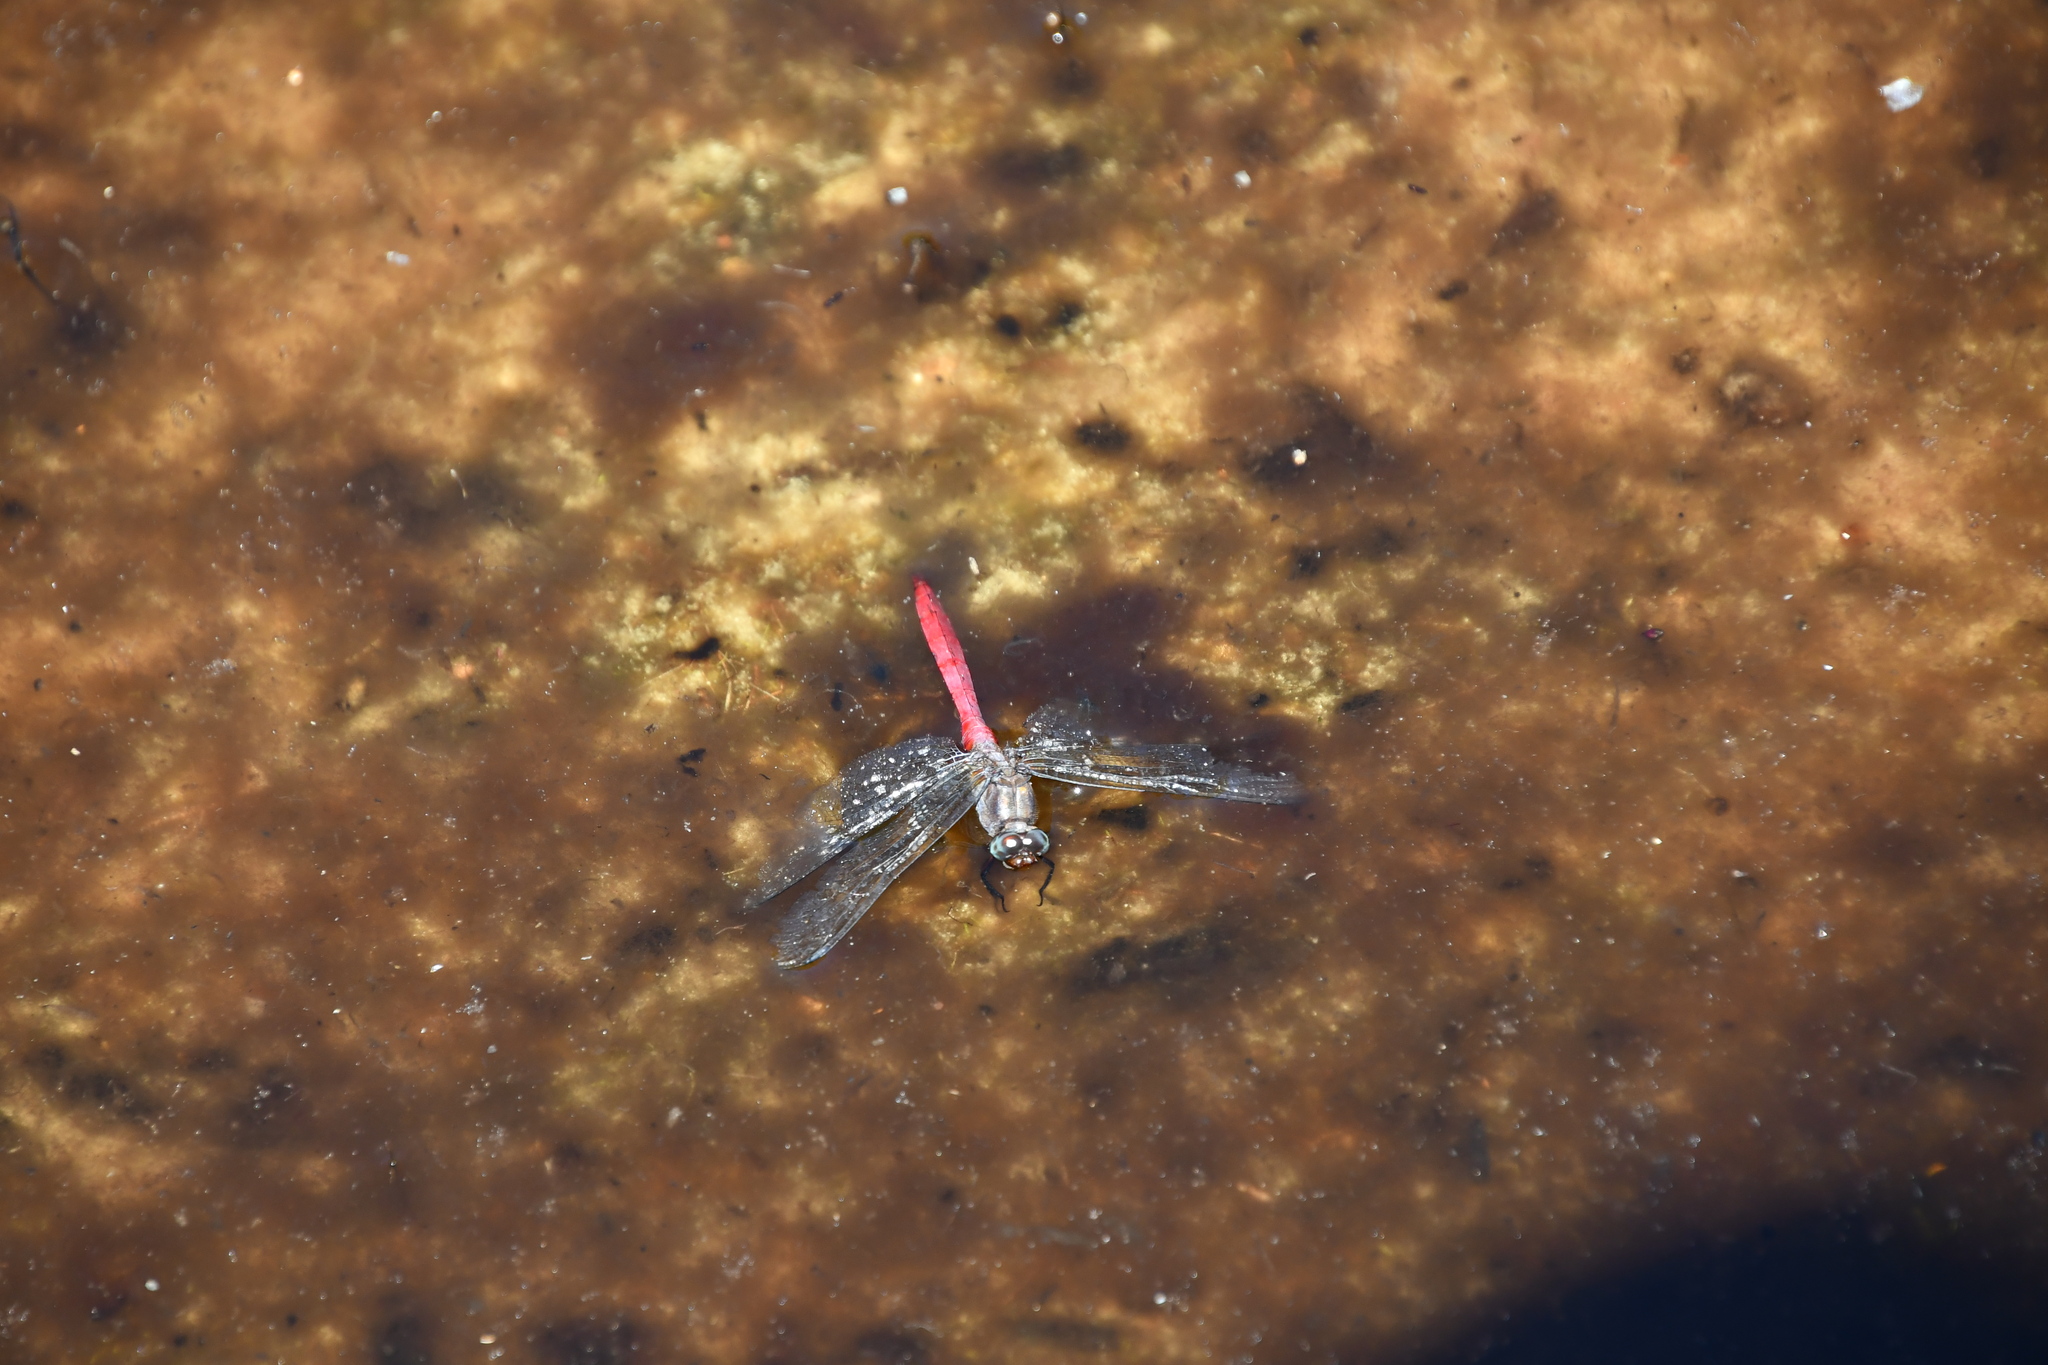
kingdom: Animalia
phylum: Arthropoda
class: Insecta
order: Odonata
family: Libellulidae
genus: Orthetrum
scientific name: Orthetrum villosovittatum
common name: Firery skimmer
